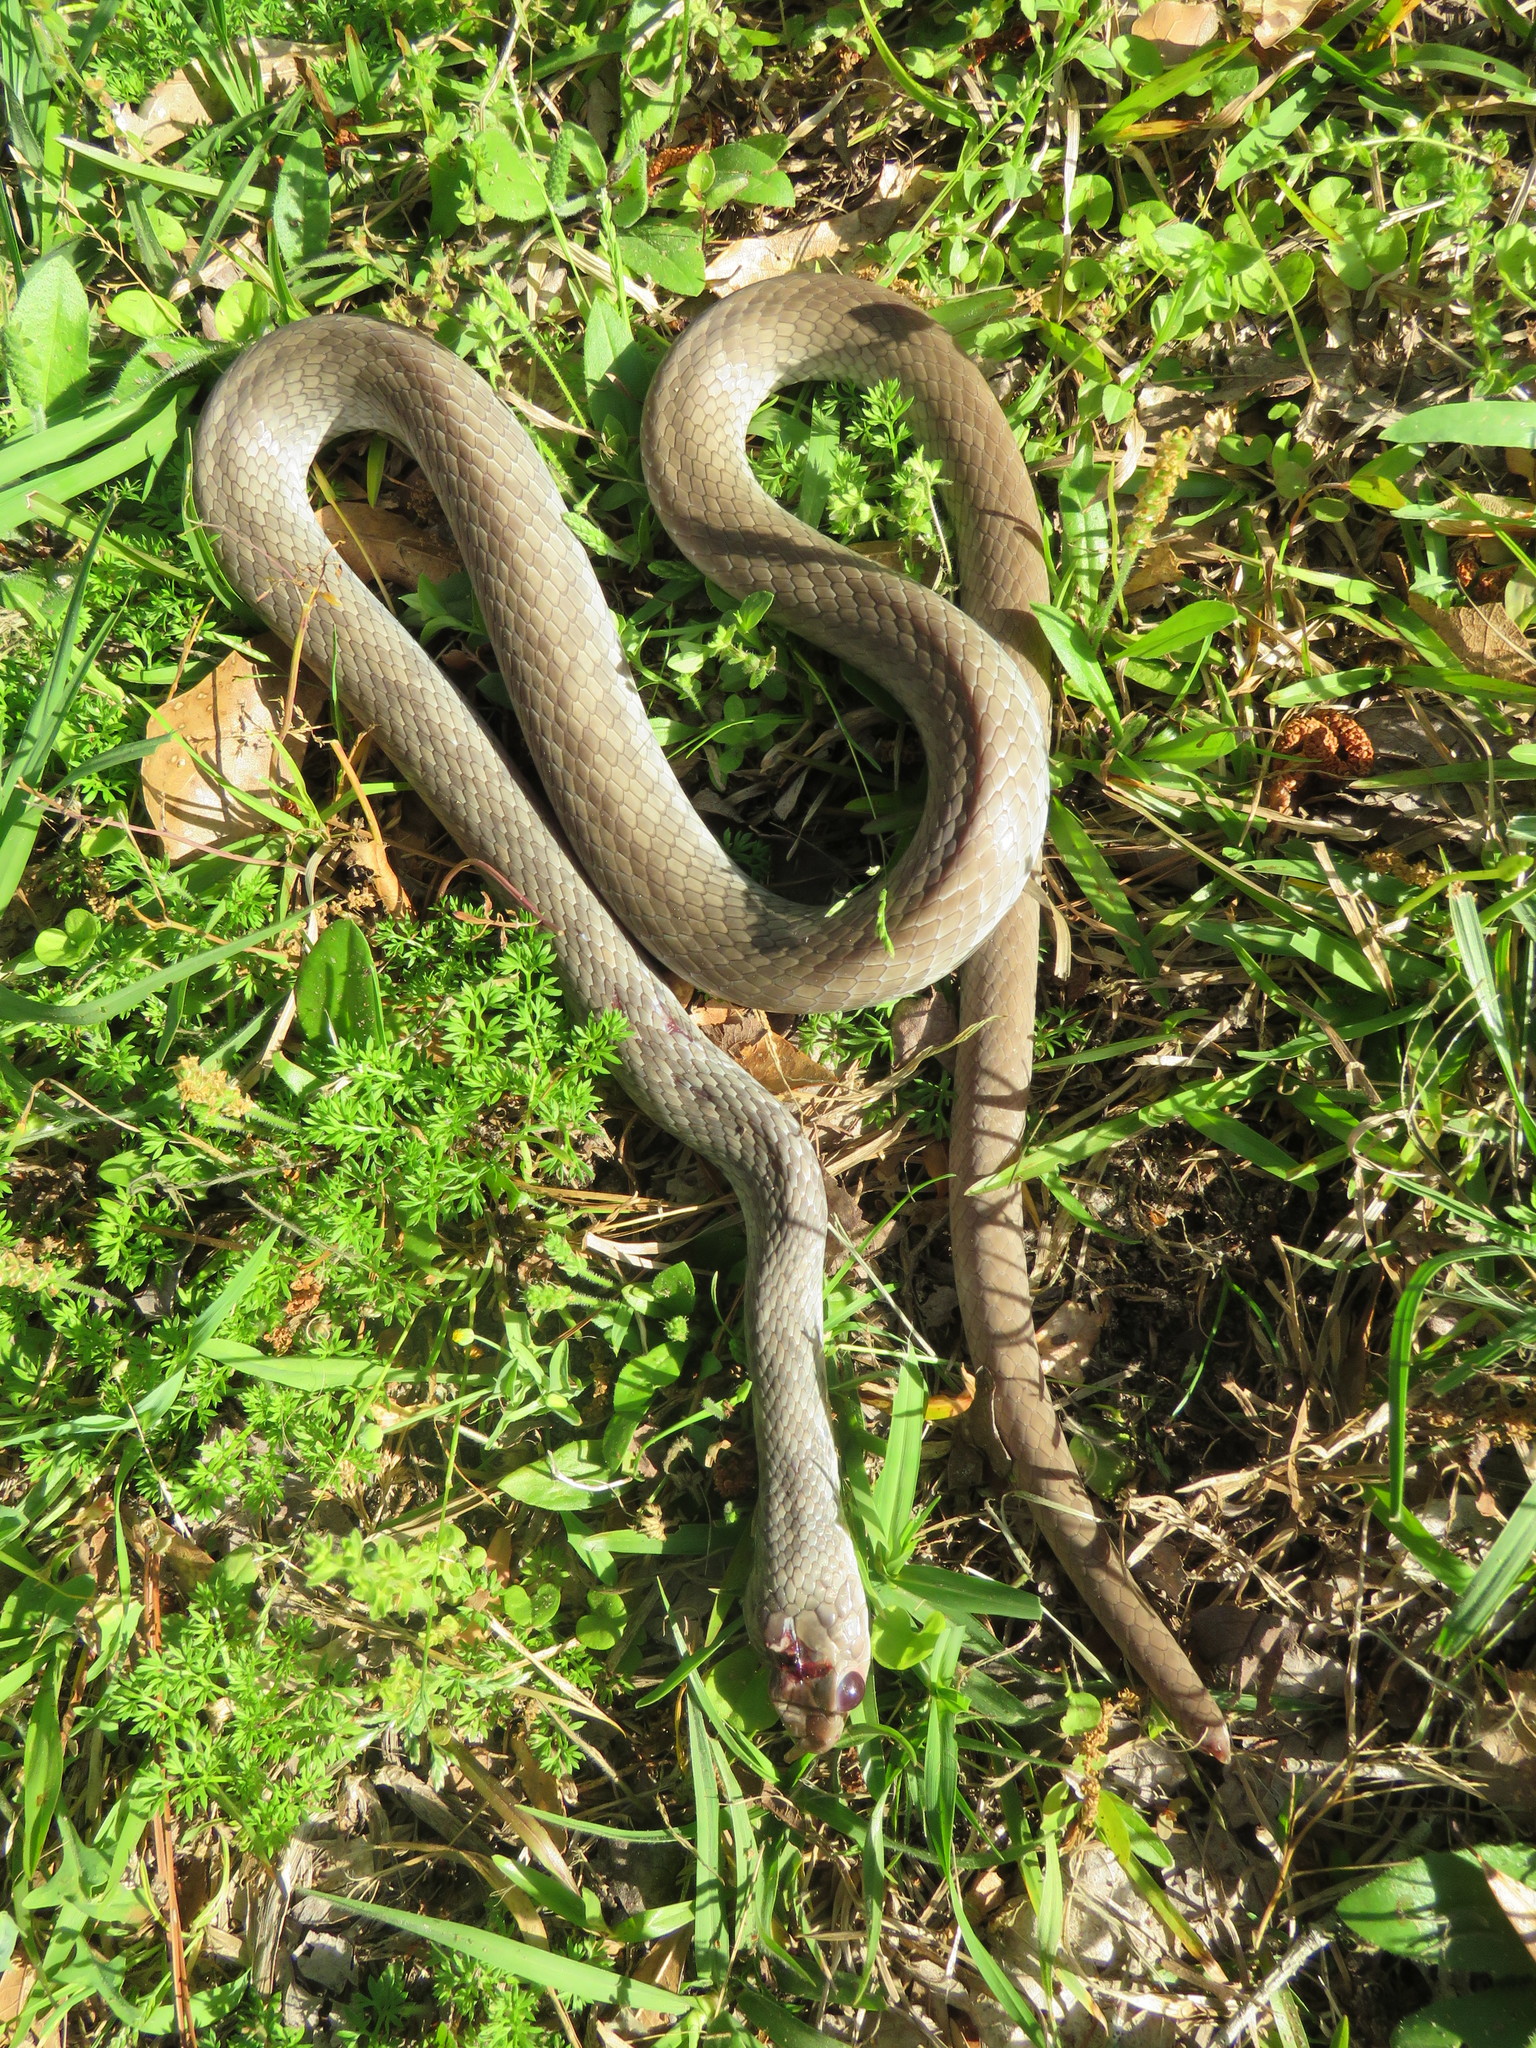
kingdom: Animalia
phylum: Chordata
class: Squamata
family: Colubridae
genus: Coluber
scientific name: Coluber constrictor
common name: Eastern racer
